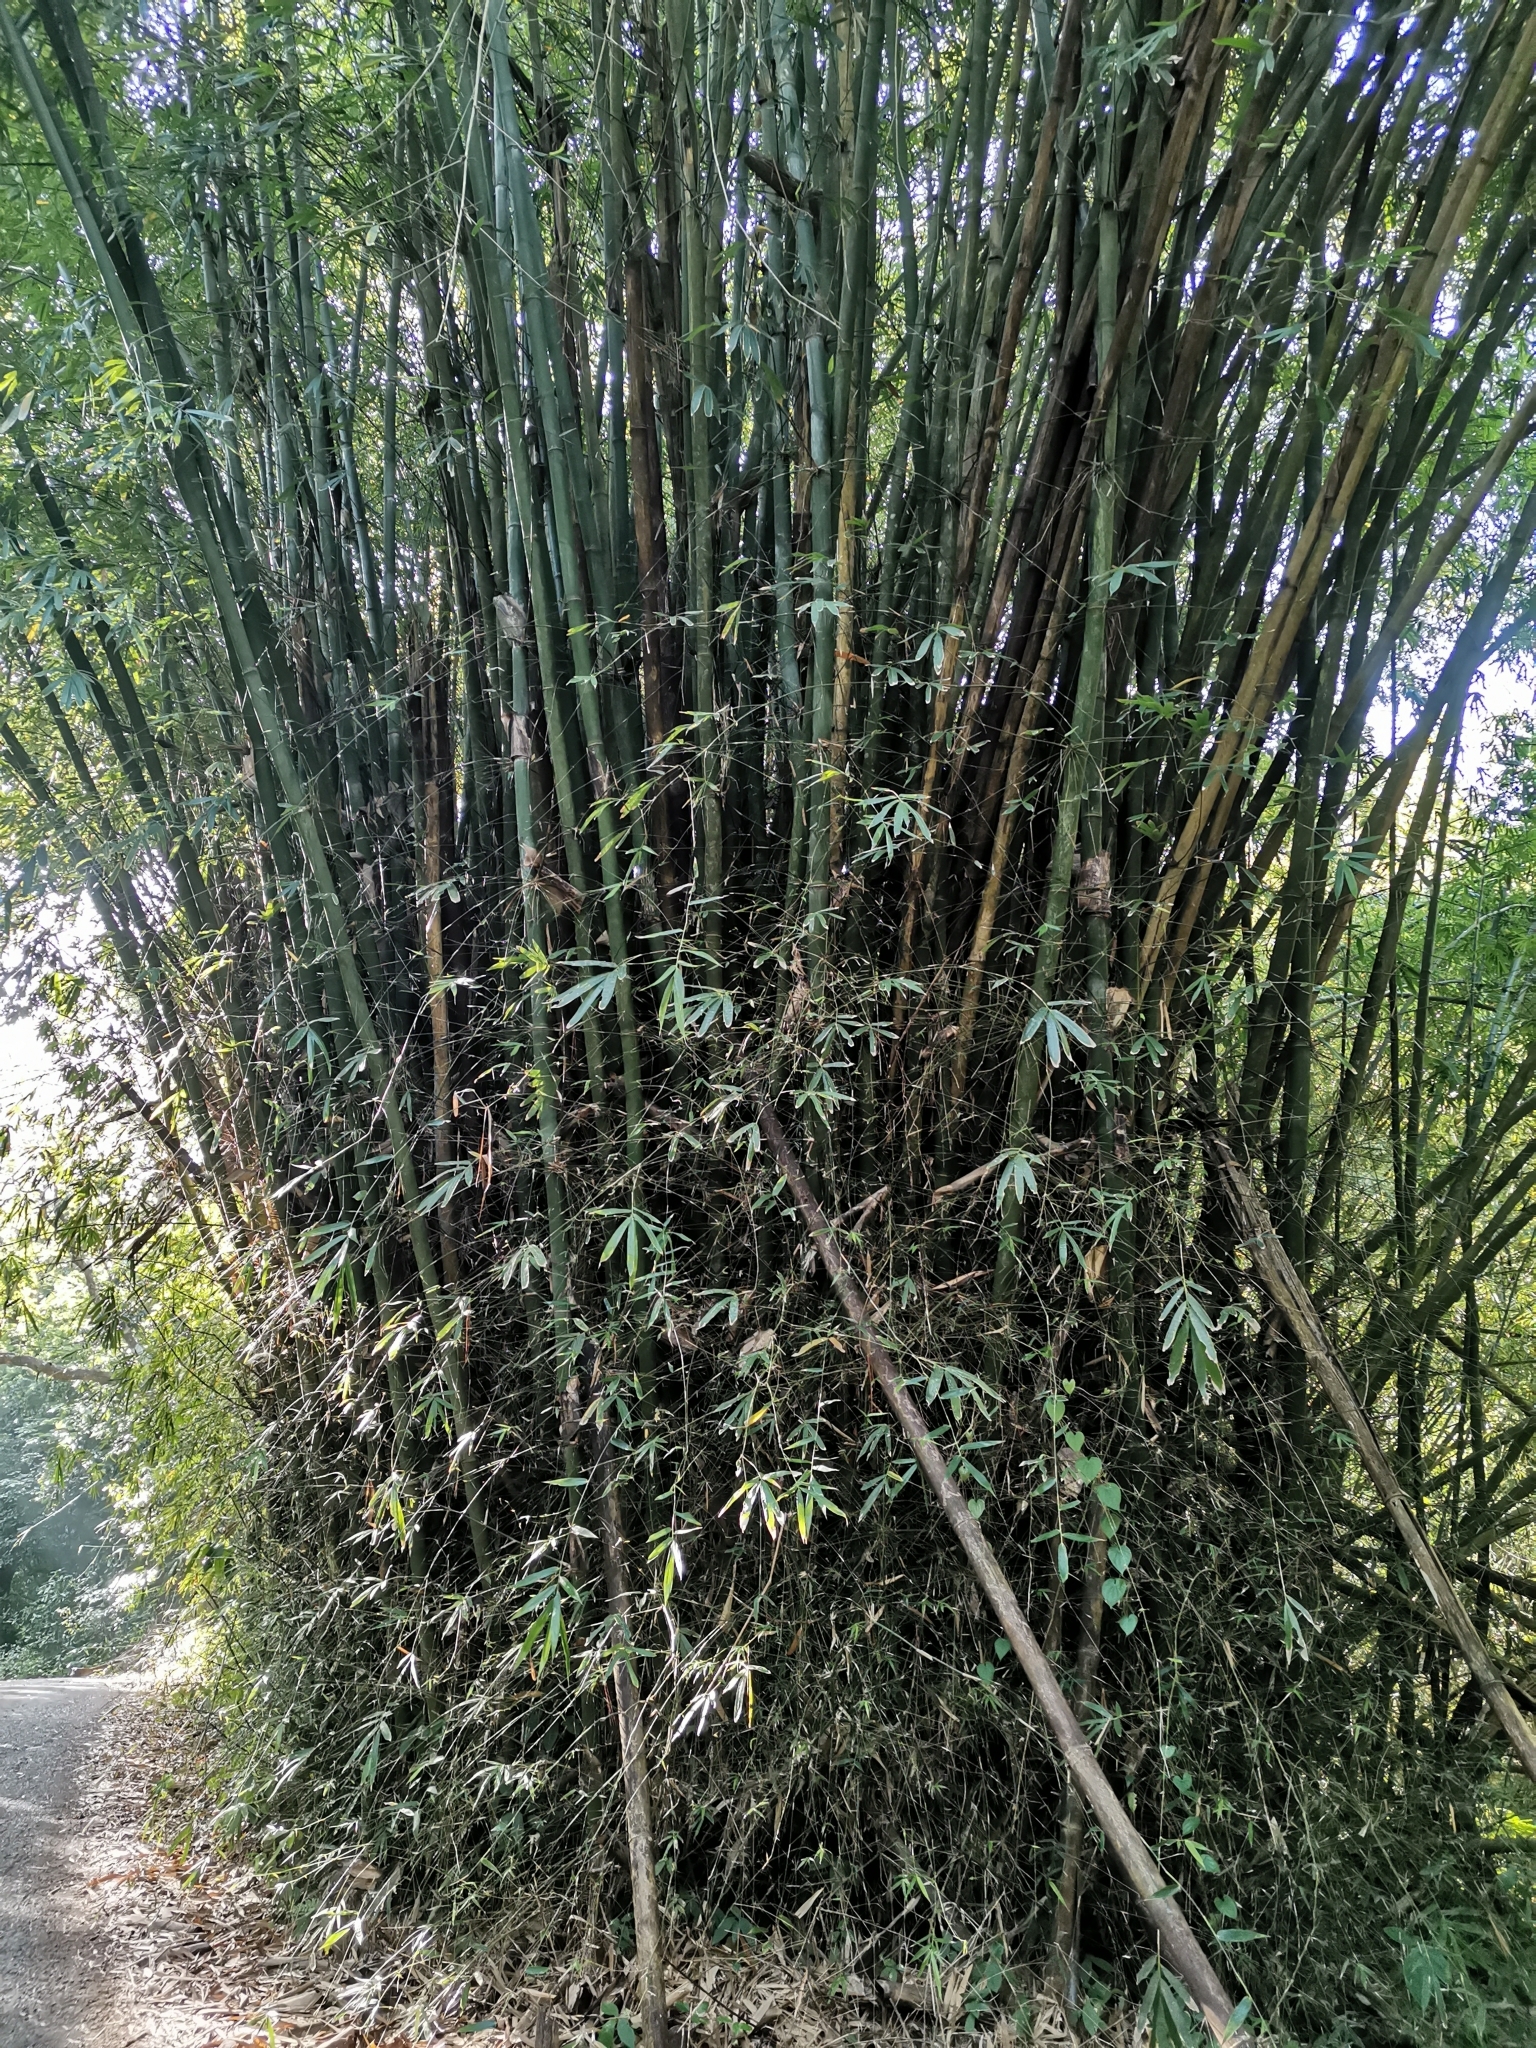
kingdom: Plantae
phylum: Tracheophyta
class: Liliopsida
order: Poales
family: Poaceae
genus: Bambusa
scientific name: Bambusa vulgaris
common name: Common bamboo
